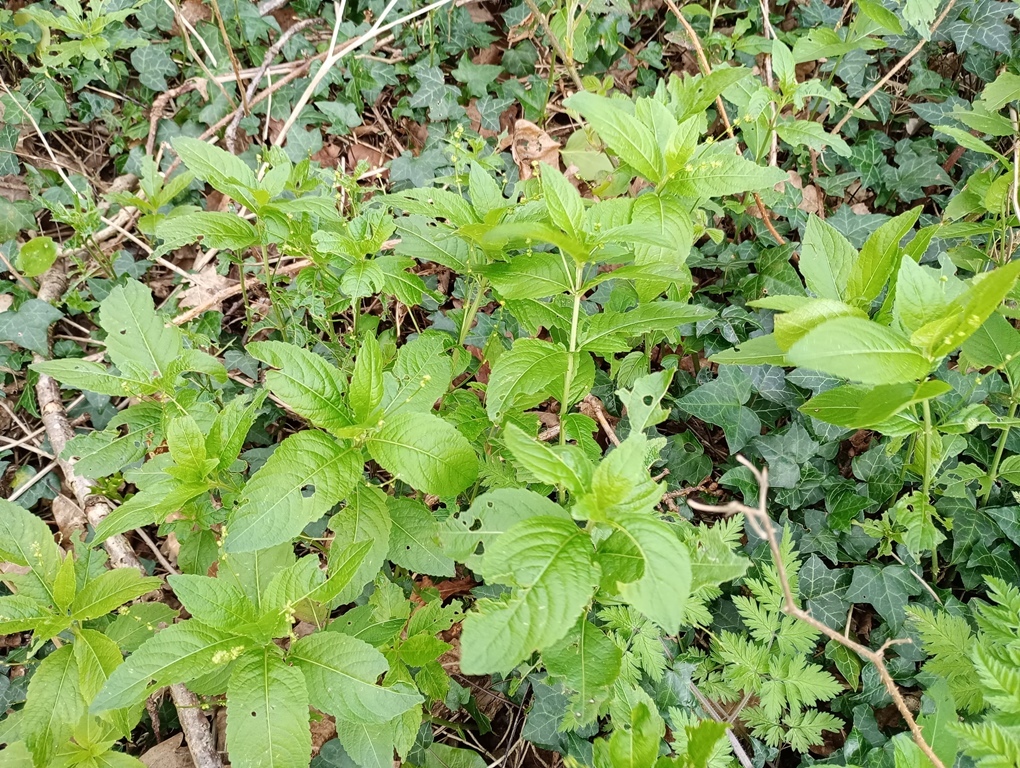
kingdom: Plantae
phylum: Tracheophyta
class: Magnoliopsida
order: Malpighiales
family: Euphorbiaceae
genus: Mercurialis
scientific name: Mercurialis perennis
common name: Dog mercury
